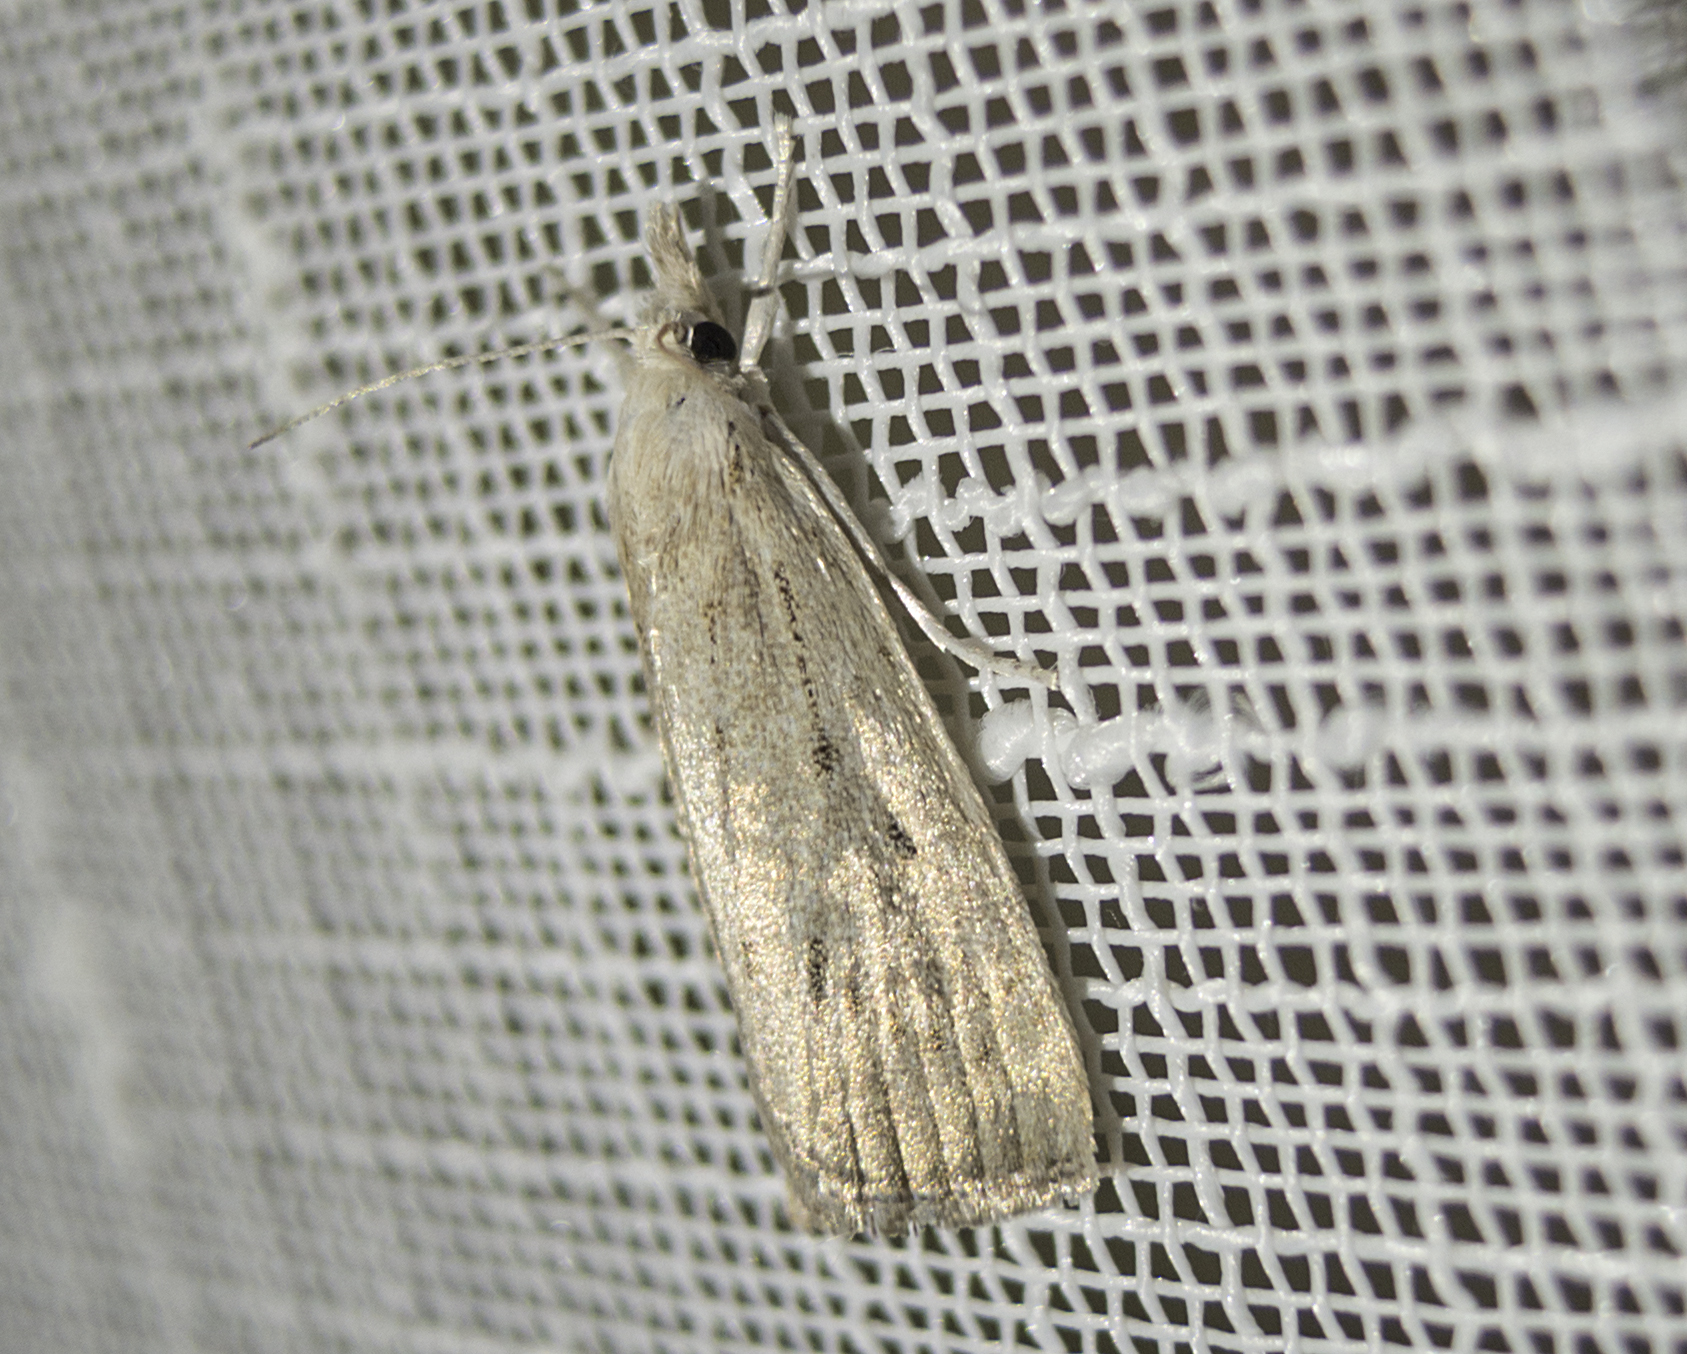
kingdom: Animalia
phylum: Arthropoda
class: Insecta
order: Lepidoptera
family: Crambidae
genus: Calamotropha
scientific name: Calamotropha paludella
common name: Bulrush veneer
